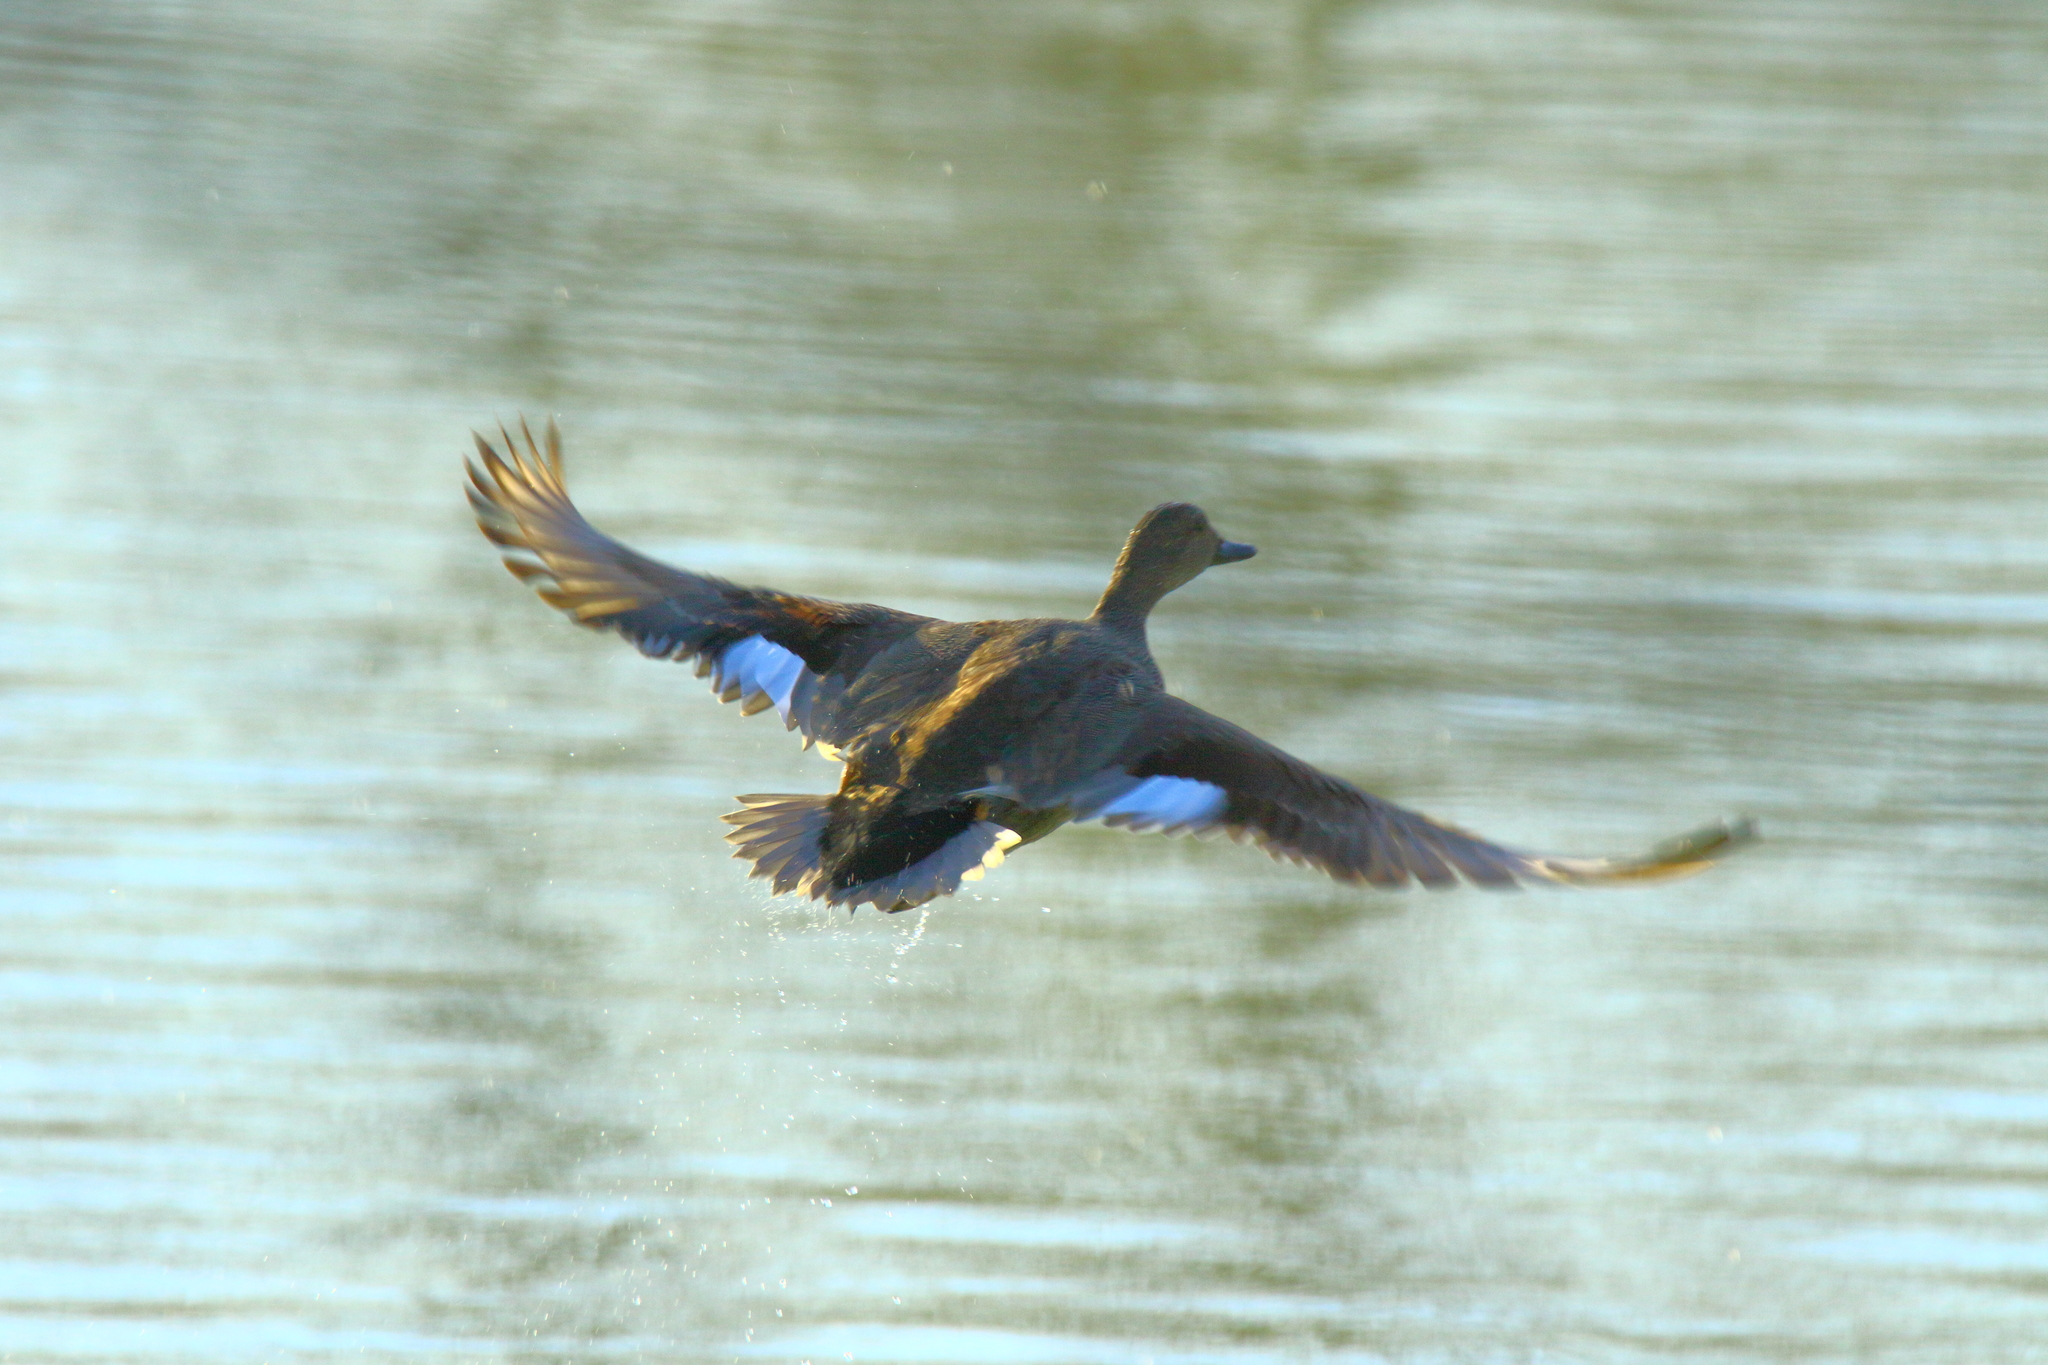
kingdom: Animalia
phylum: Chordata
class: Aves
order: Anseriformes
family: Anatidae
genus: Mareca
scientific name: Mareca strepera
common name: Gadwall
